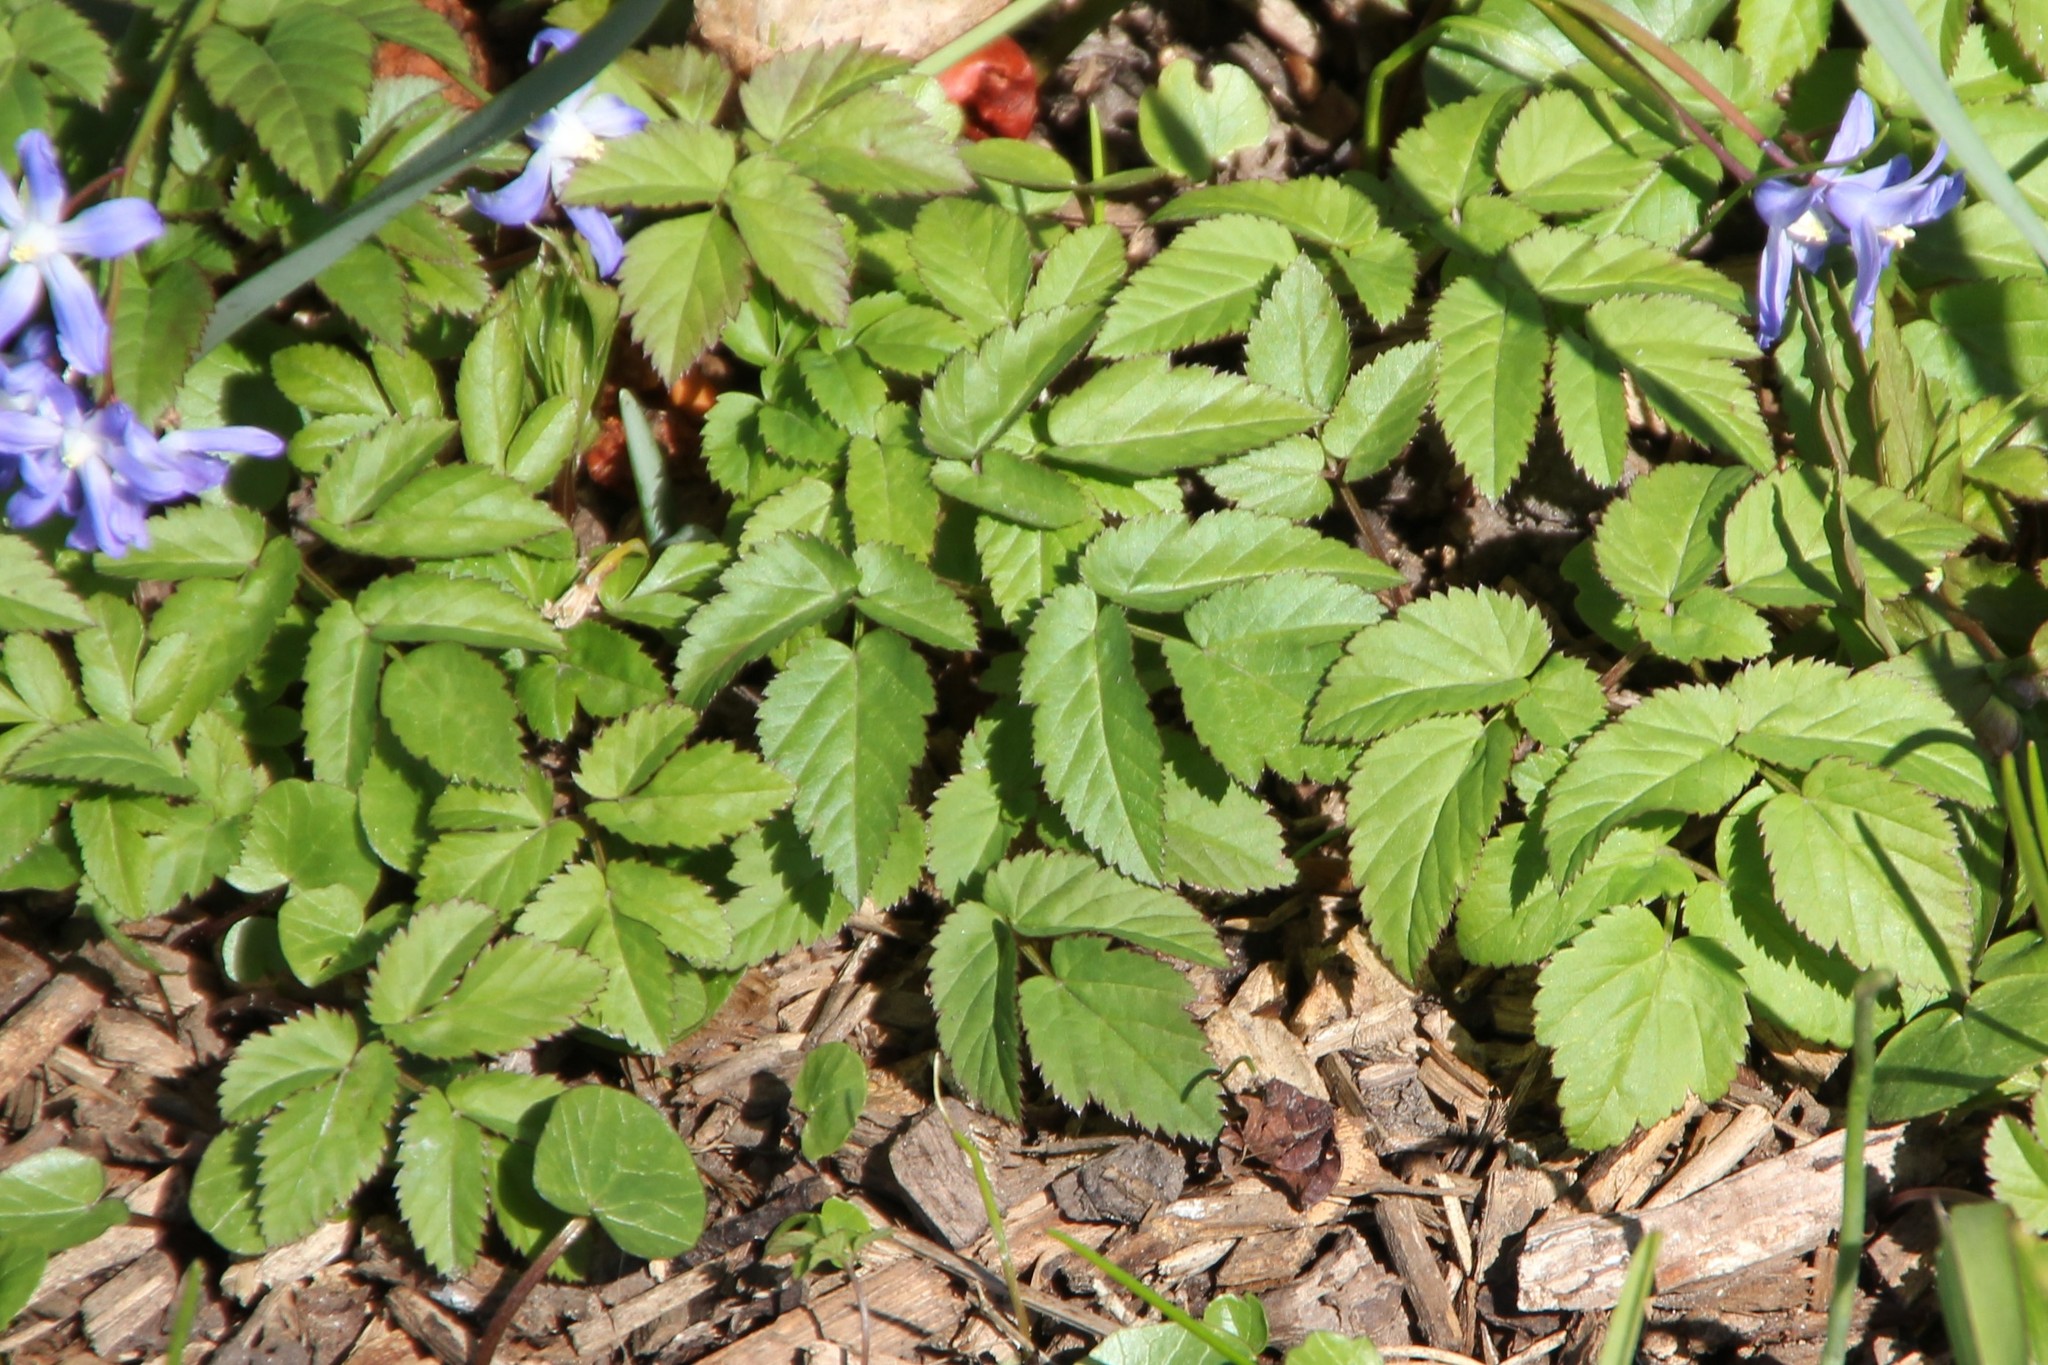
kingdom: Plantae
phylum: Tracheophyta
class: Magnoliopsida
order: Apiales
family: Apiaceae
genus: Aegopodium
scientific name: Aegopodium podagraria
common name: Ground-elder
